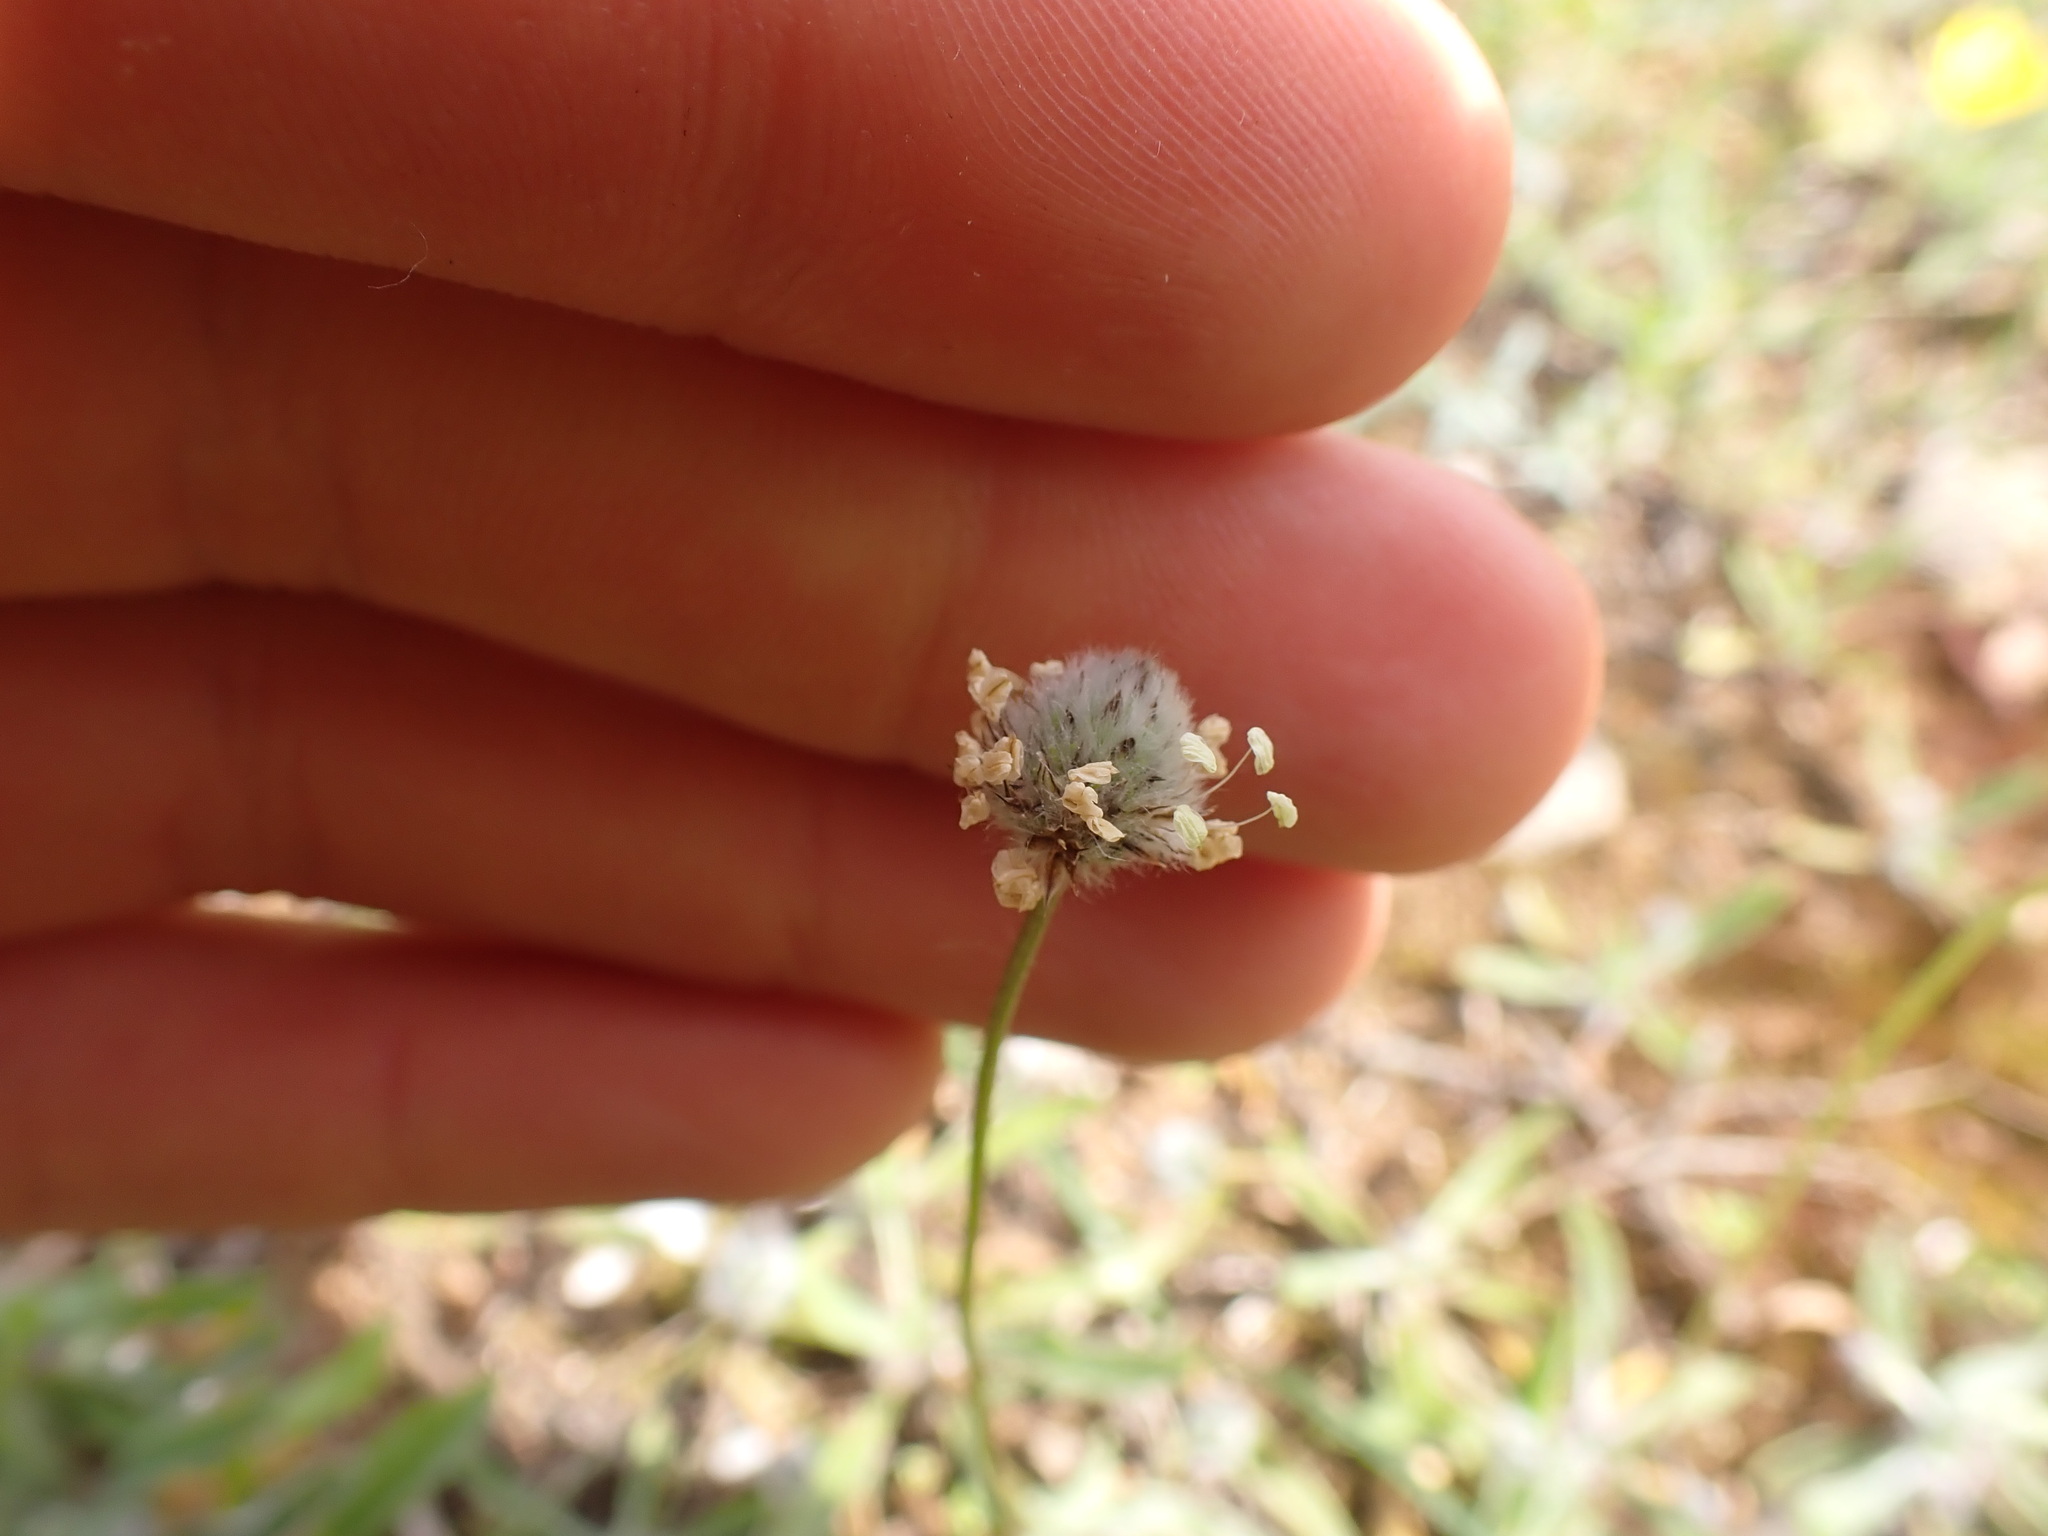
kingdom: Plantae
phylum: Tracheophyta
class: Magnoliopsida
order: Lamiales
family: Plantaginaceae
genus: Plantago
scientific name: Plantago lagopus
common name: Hare-foot plantain
